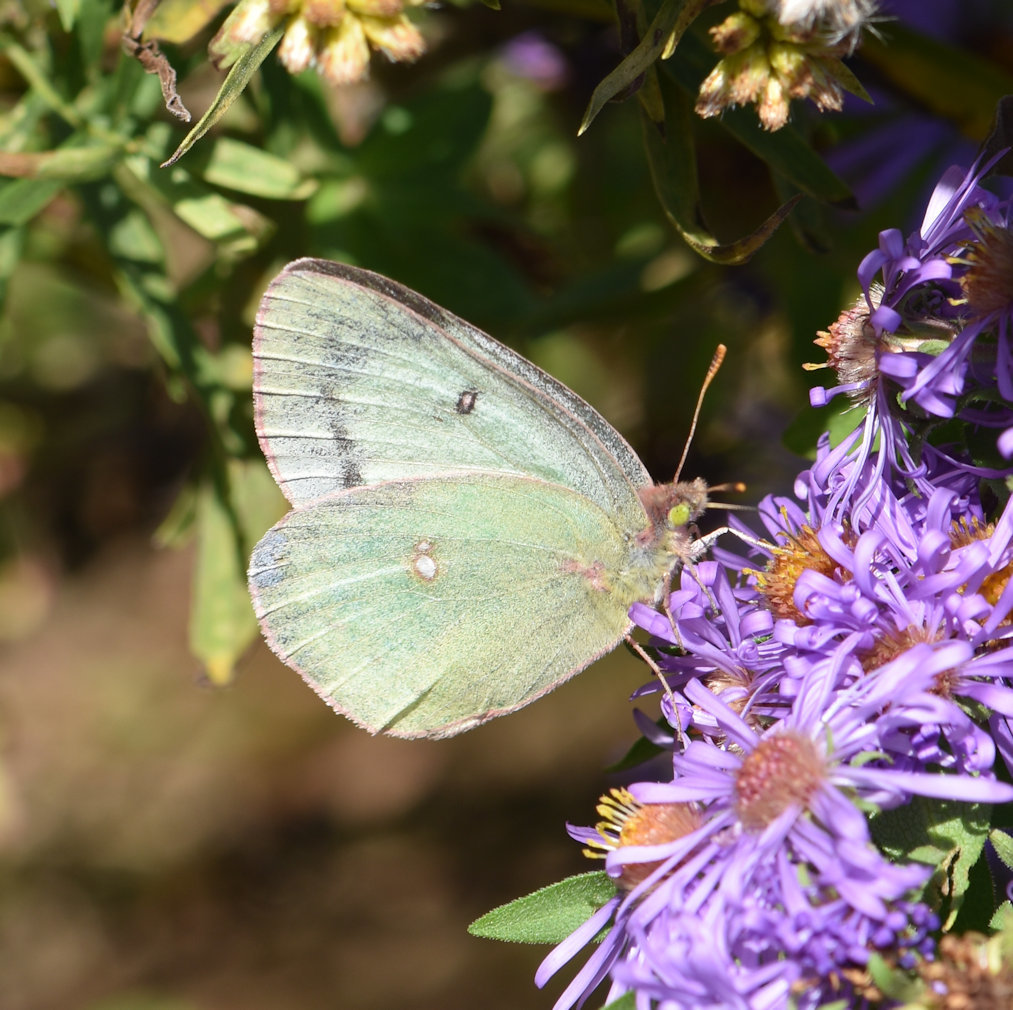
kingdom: Animalia
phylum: Arthropoda
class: Insecta
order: Lepidoptera
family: Pieridae
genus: Colias
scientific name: Colias philodice
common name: Clouded sulphur
